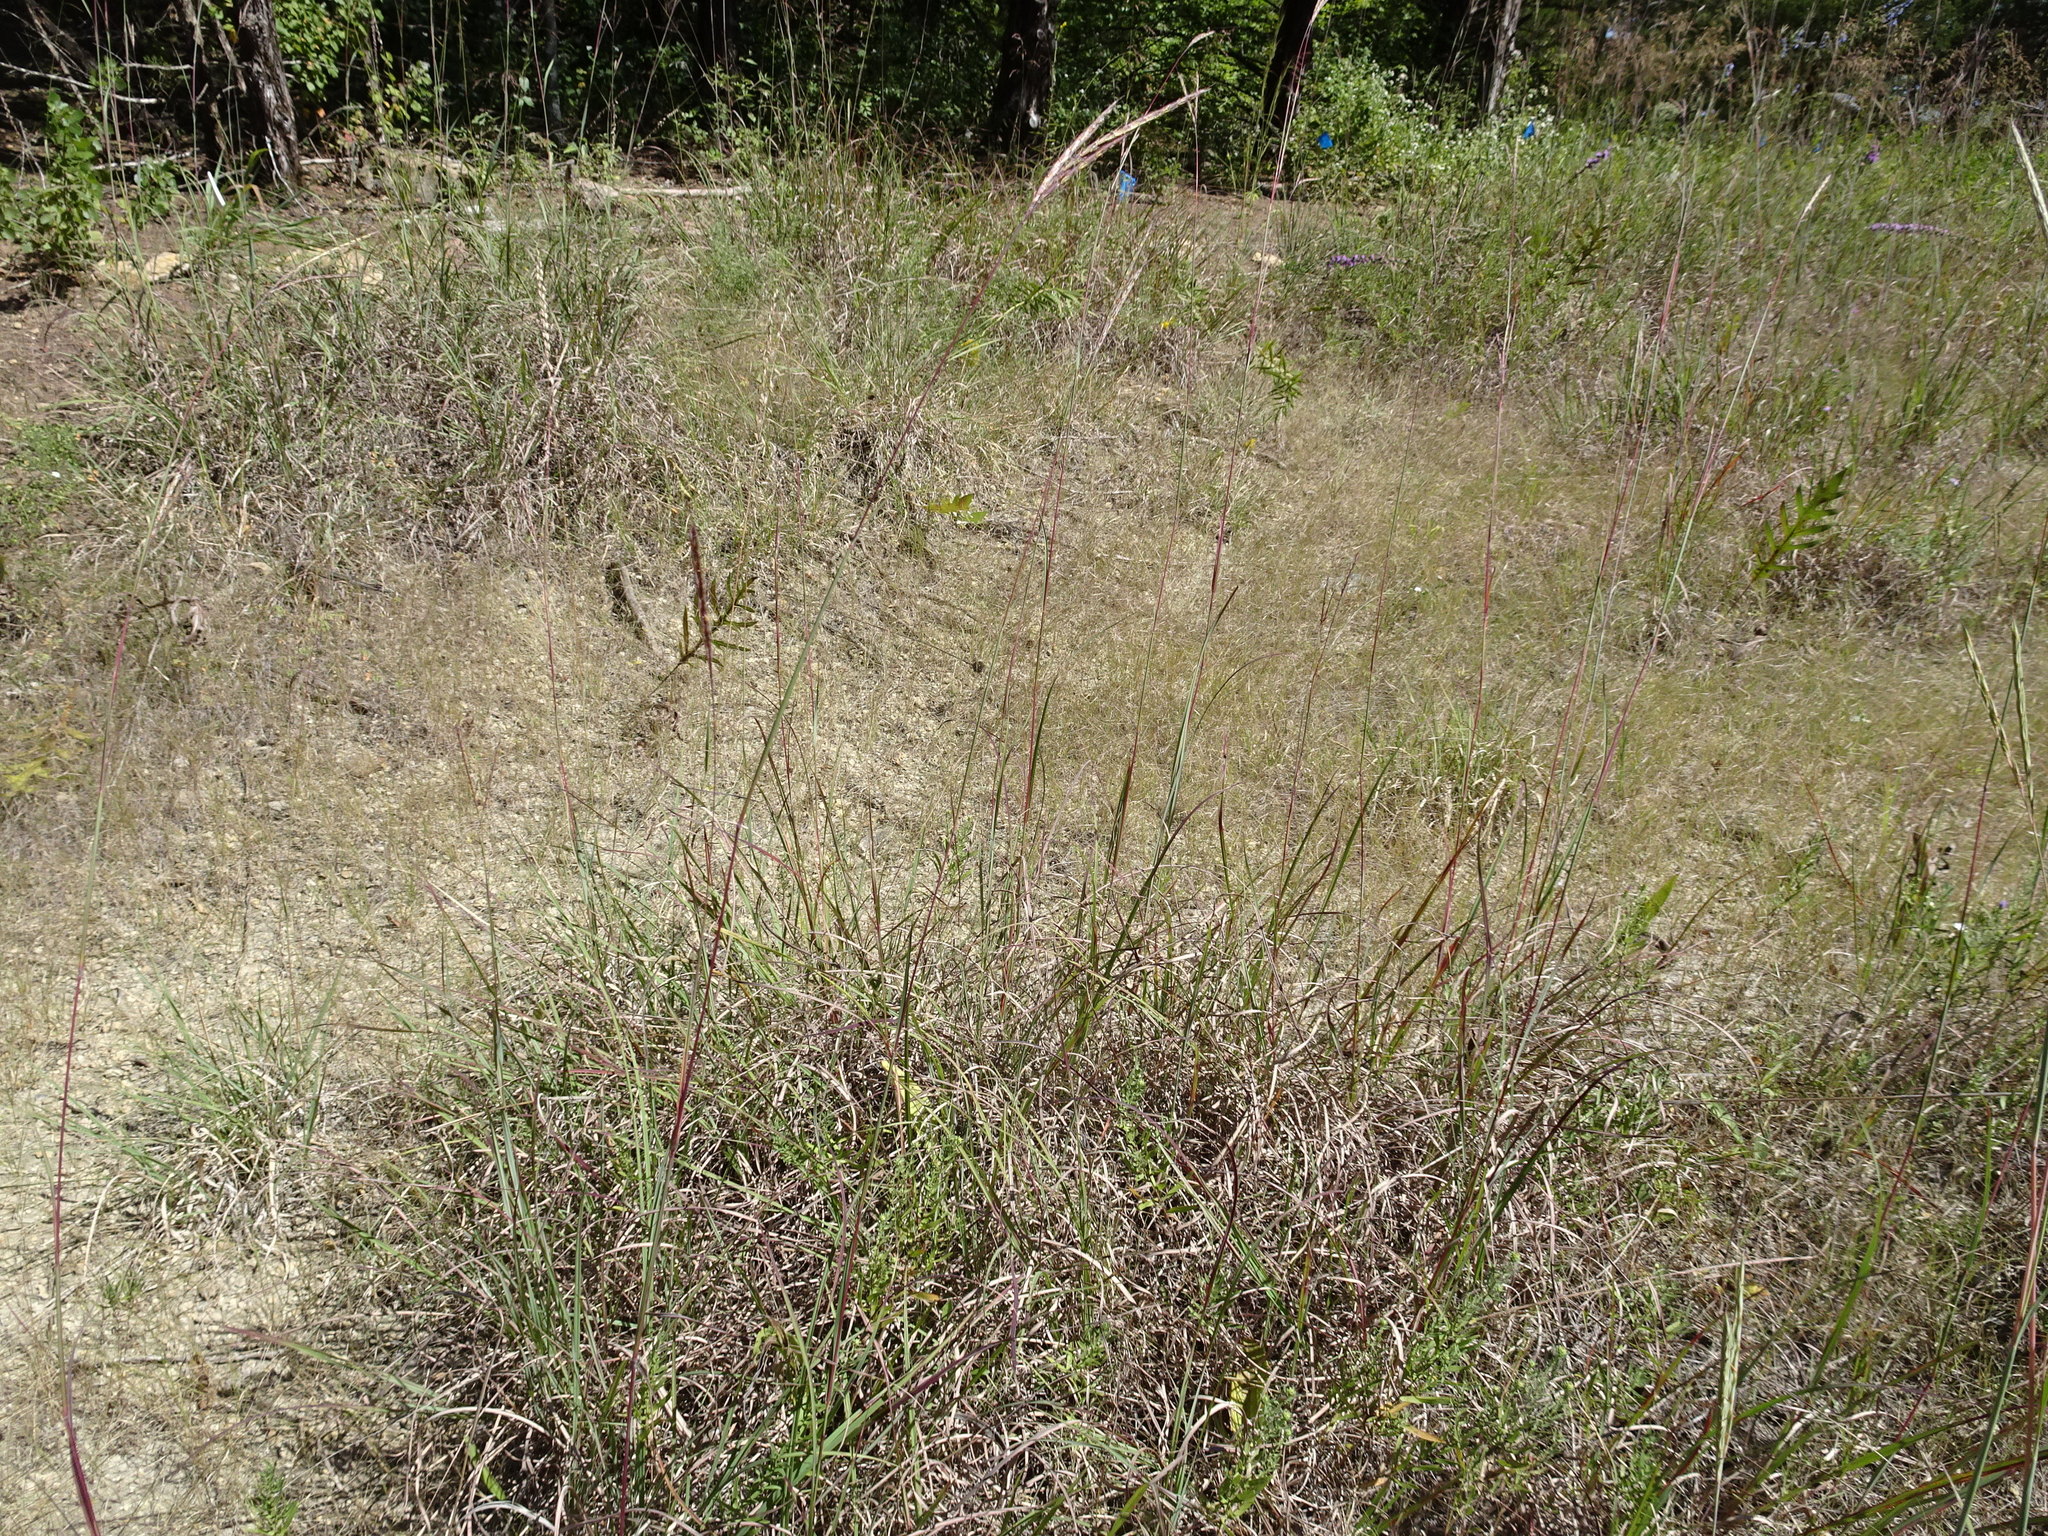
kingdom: Plantae
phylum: Tracheophyta
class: Liliopsida
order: Poales
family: Poaceae
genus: Andropogon
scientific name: Andropogon gerardi
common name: Big bluestem
